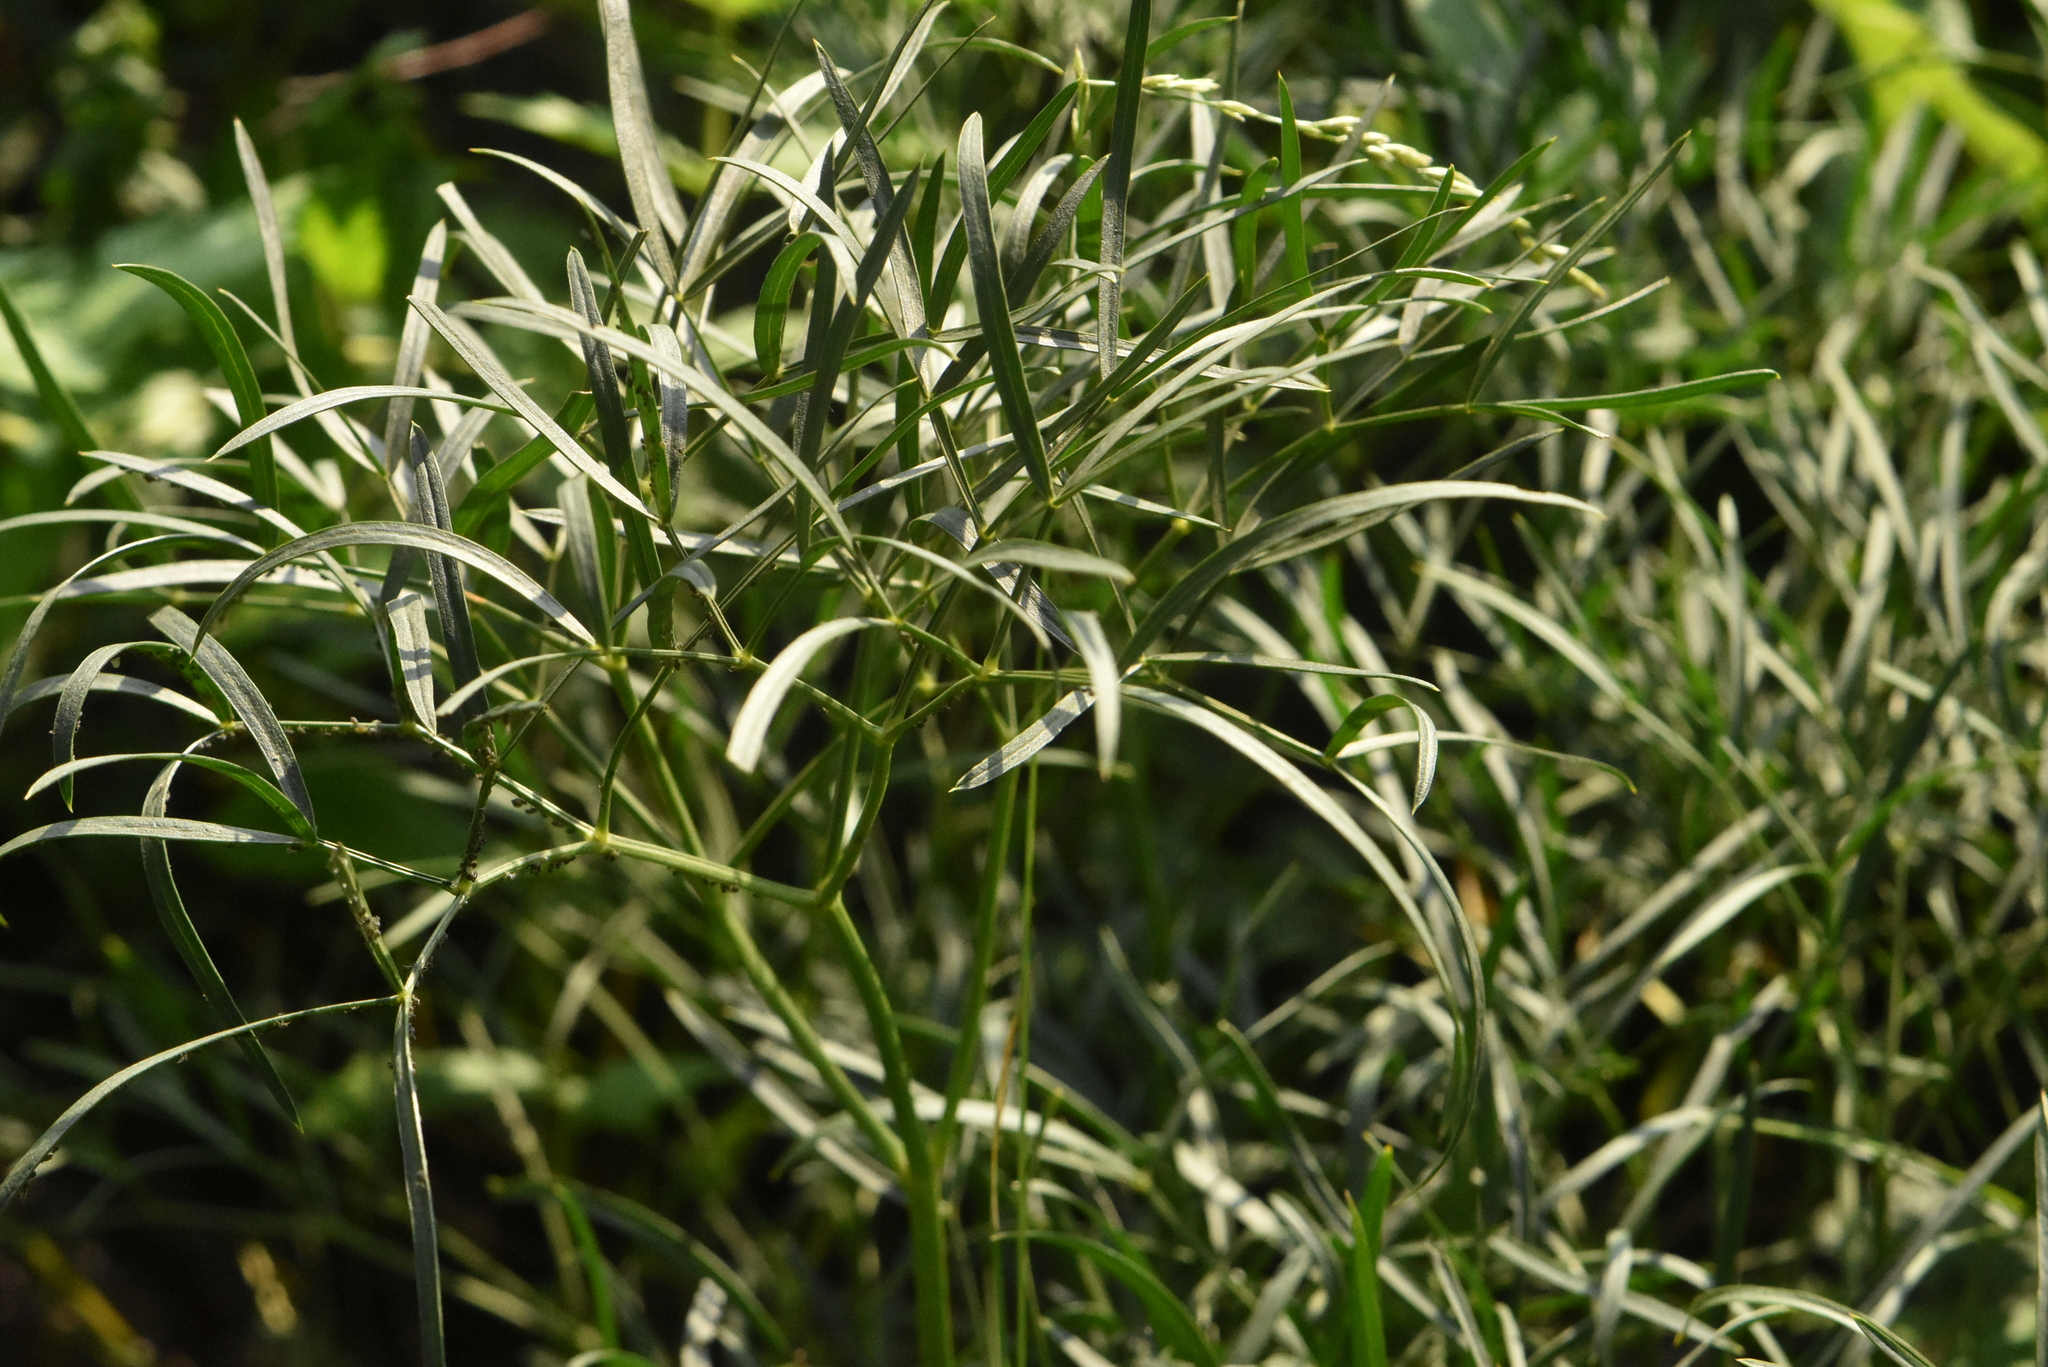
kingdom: Plantae
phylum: Tracheophyta
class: Magnoliopsida
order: Apiales
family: Apiaceae
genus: Peucedanum
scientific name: Peucedanum morisonii
